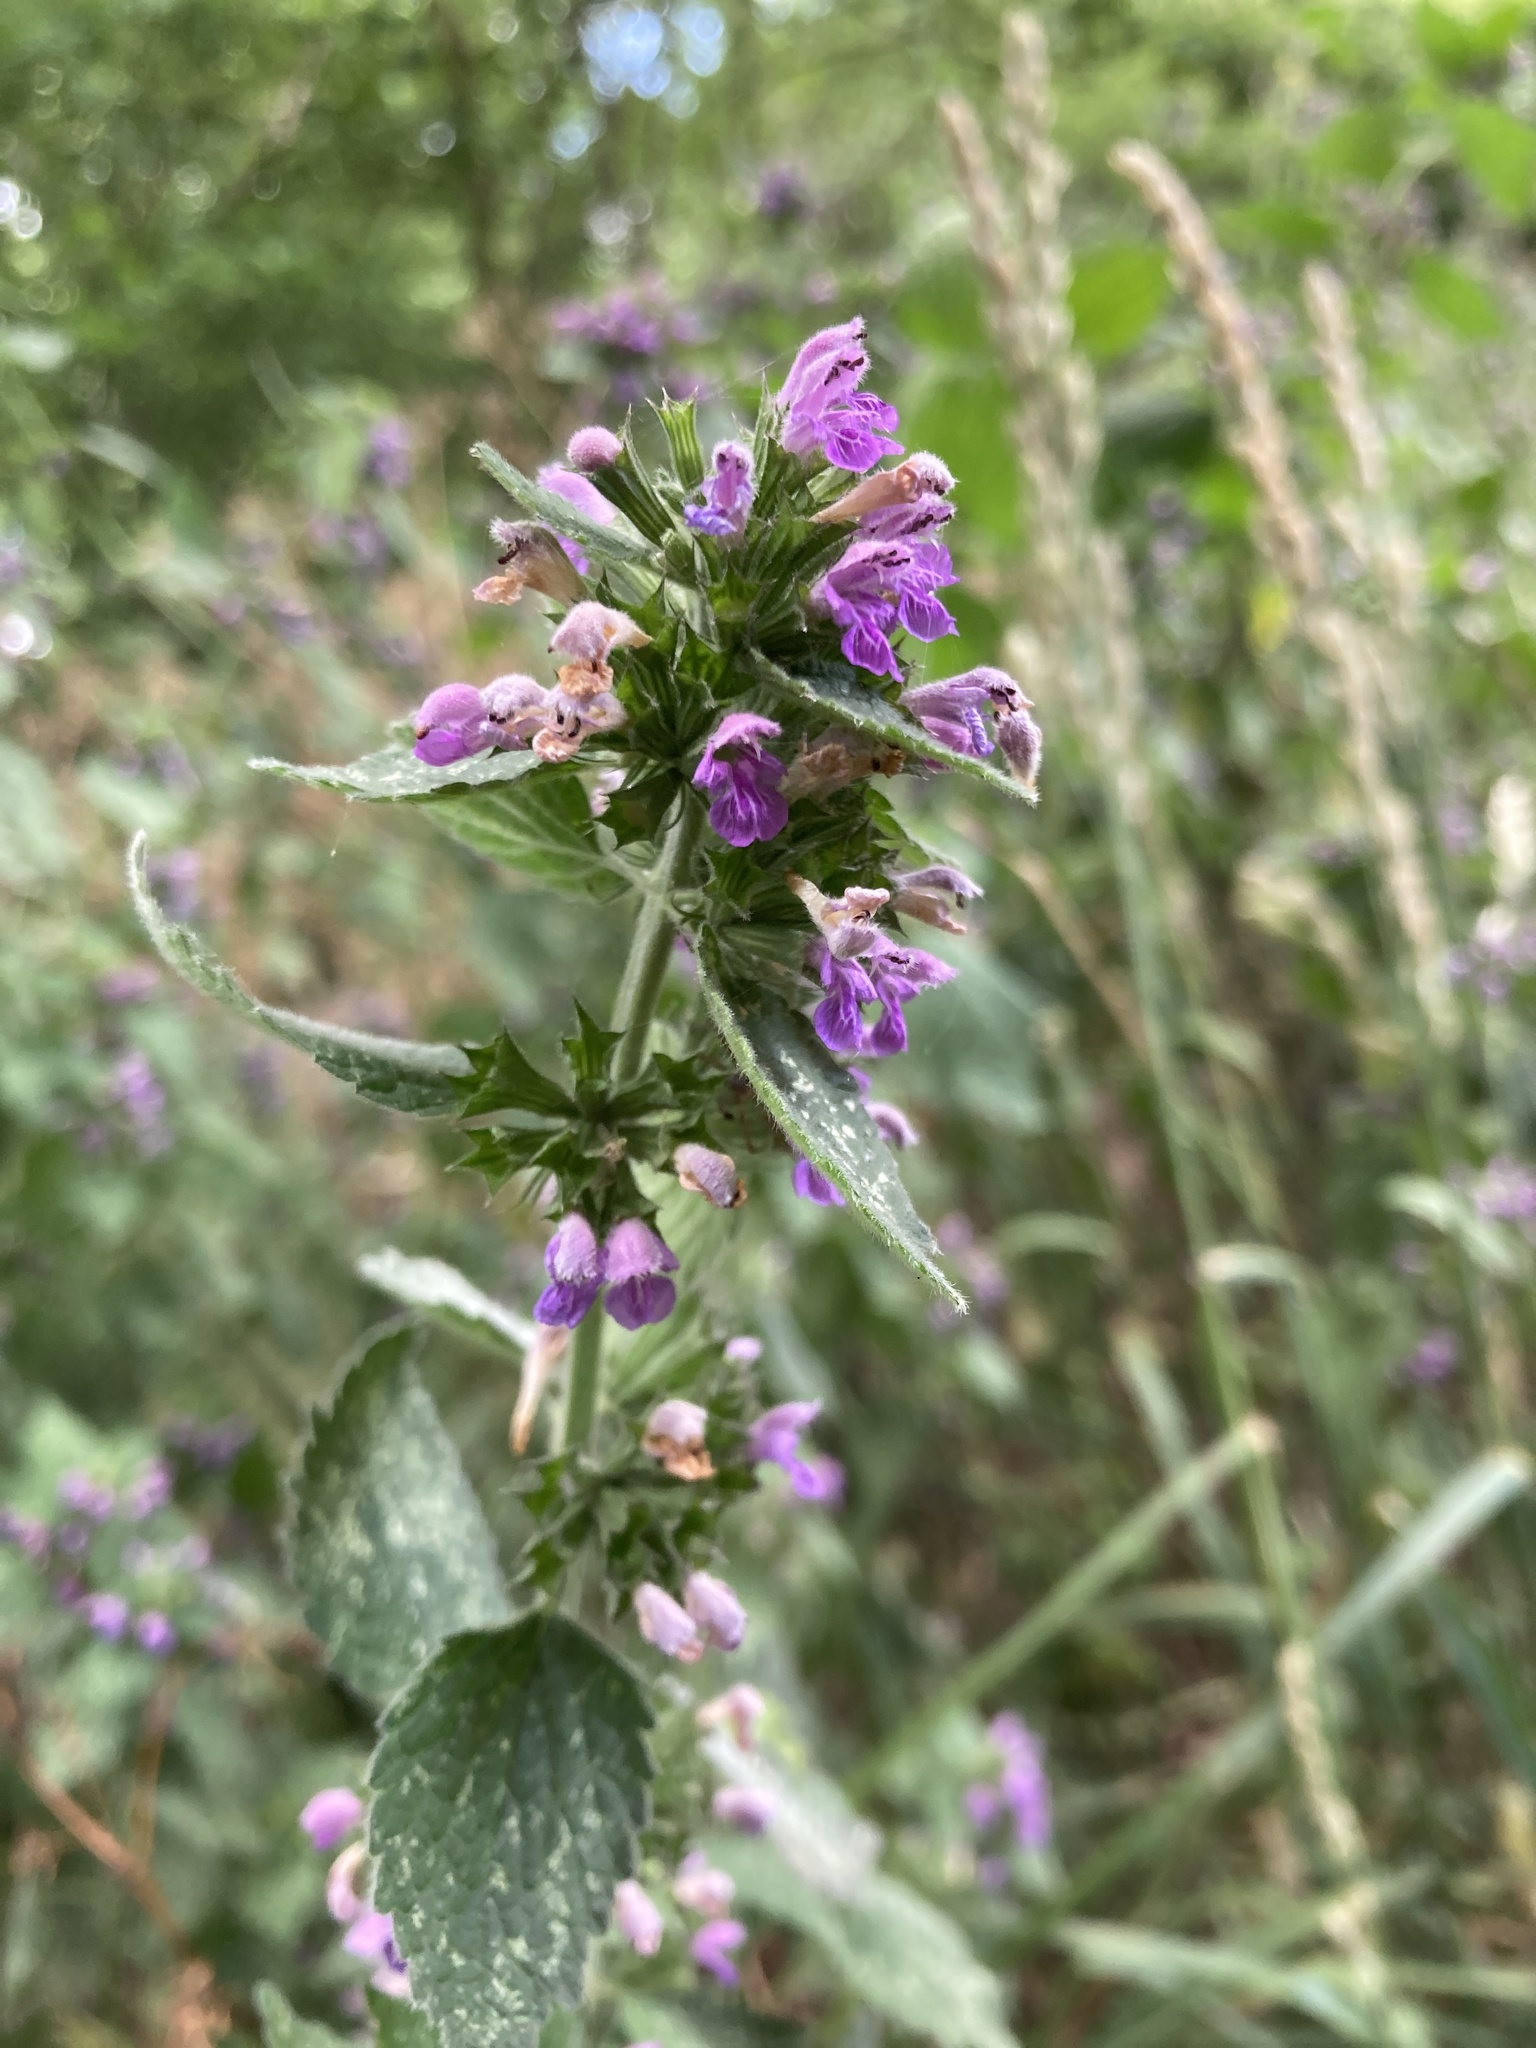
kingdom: Plantae
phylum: Tracheophyta
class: Magnoliopsida
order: Lamiales
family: Lamiaceae
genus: Ballota
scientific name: Ballota nigra
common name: Black horehound
